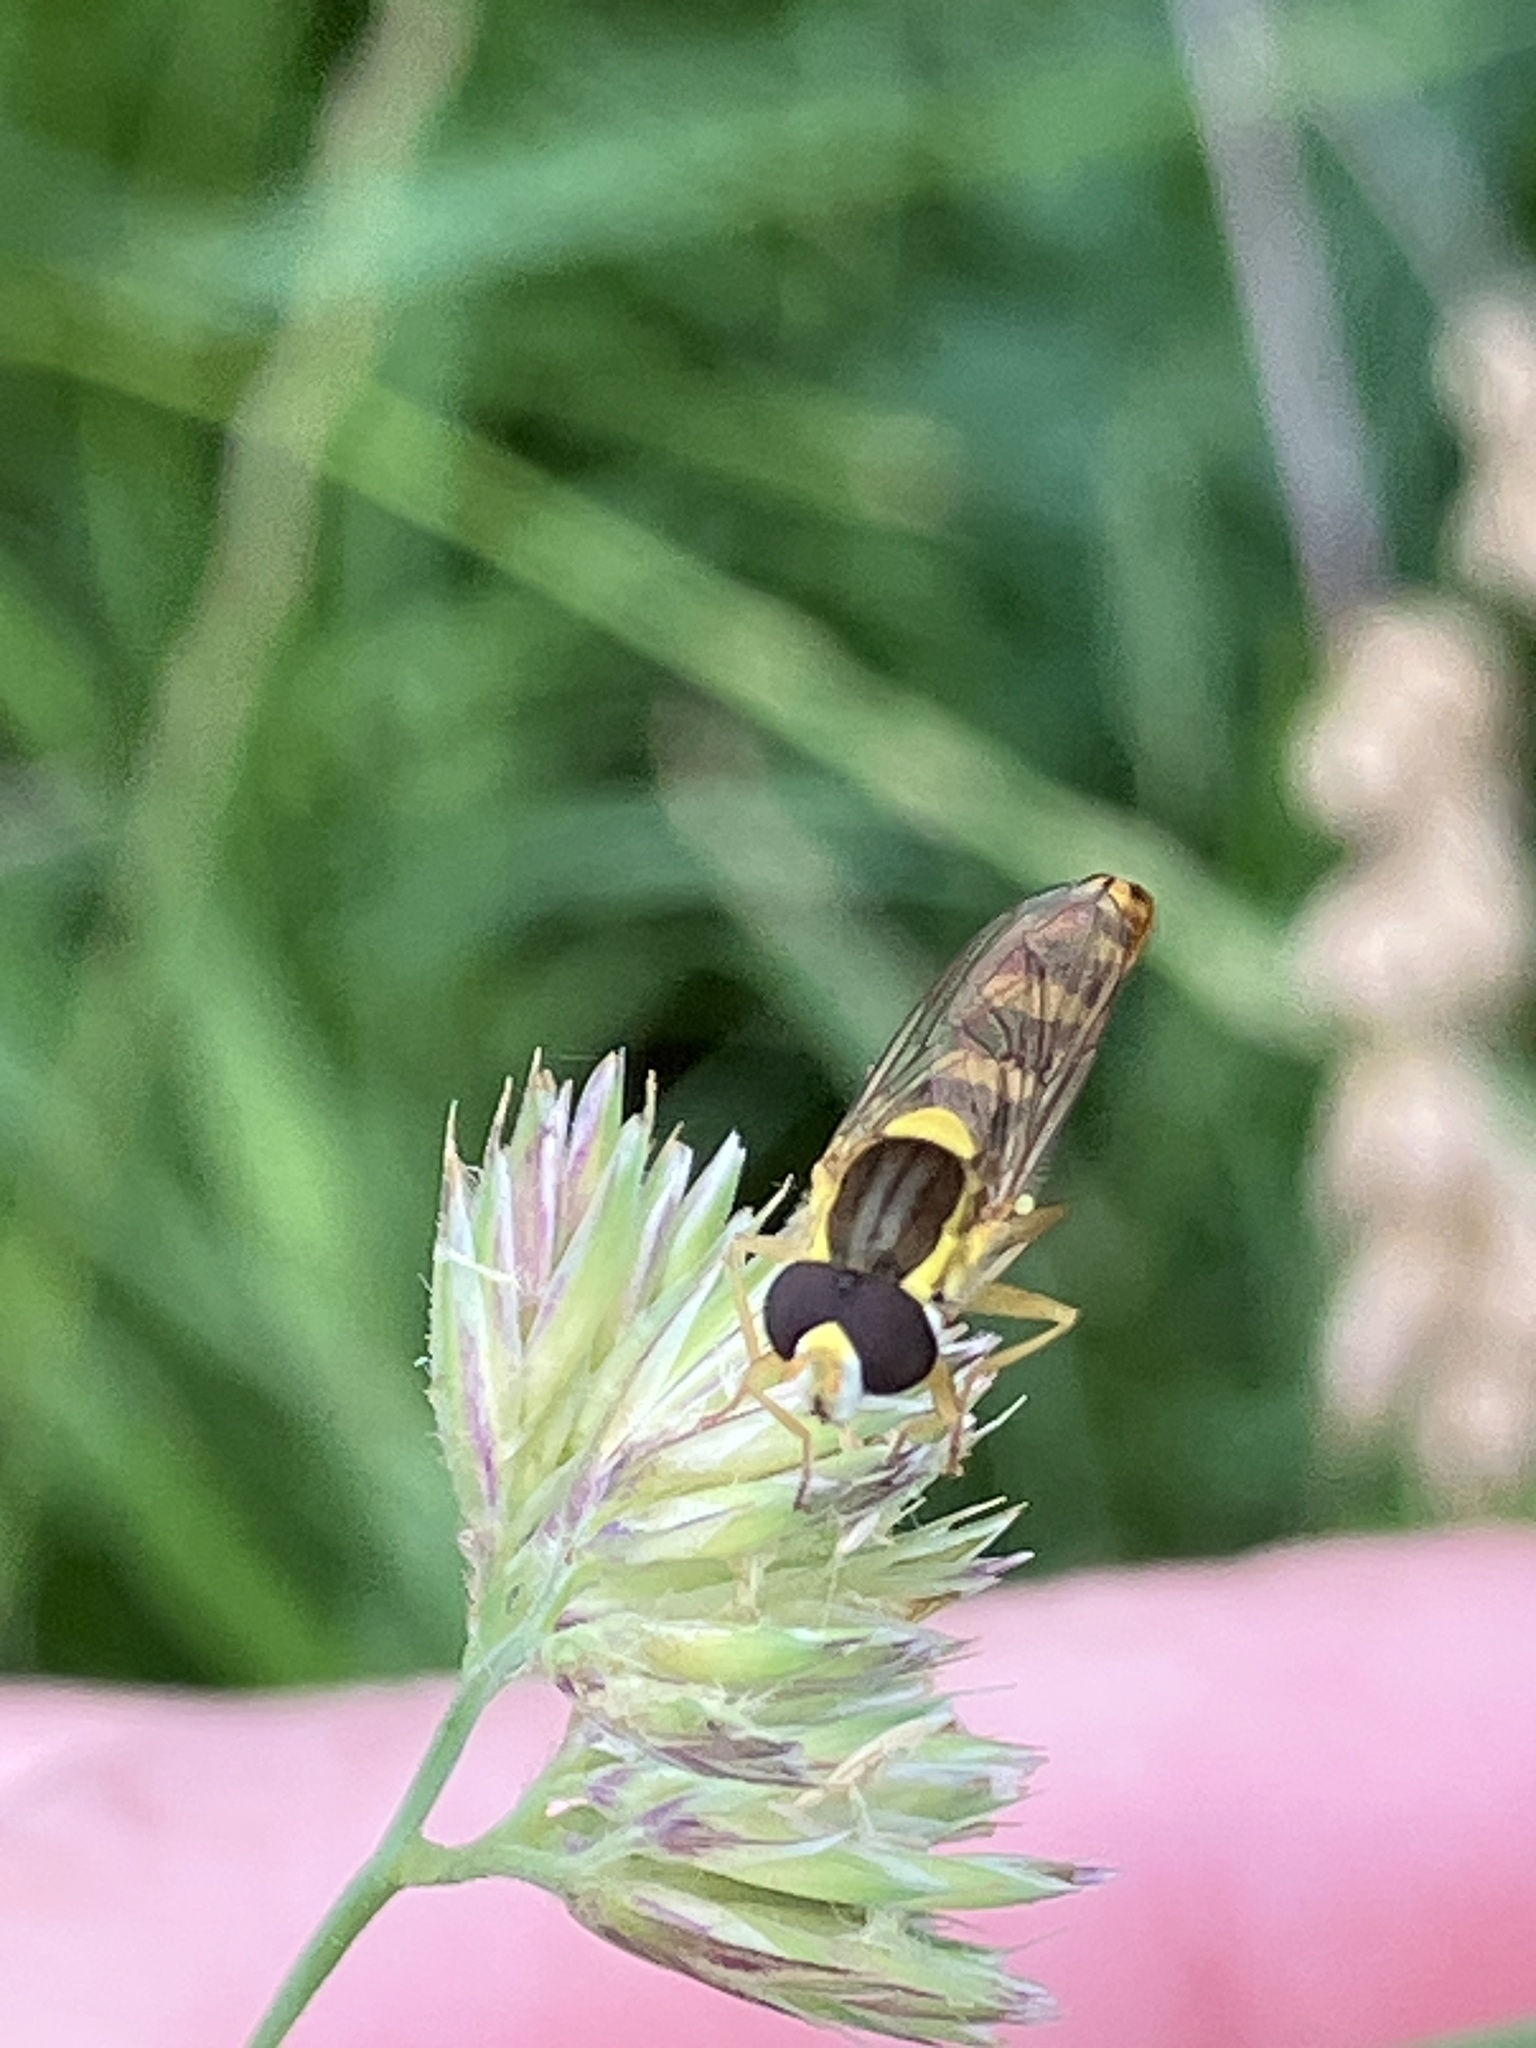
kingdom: Animalia
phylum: Arthropoda
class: Insecta
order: Diptera
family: Syrphidae
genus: Sphaerophoria
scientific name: Sphaerophoria scripta
